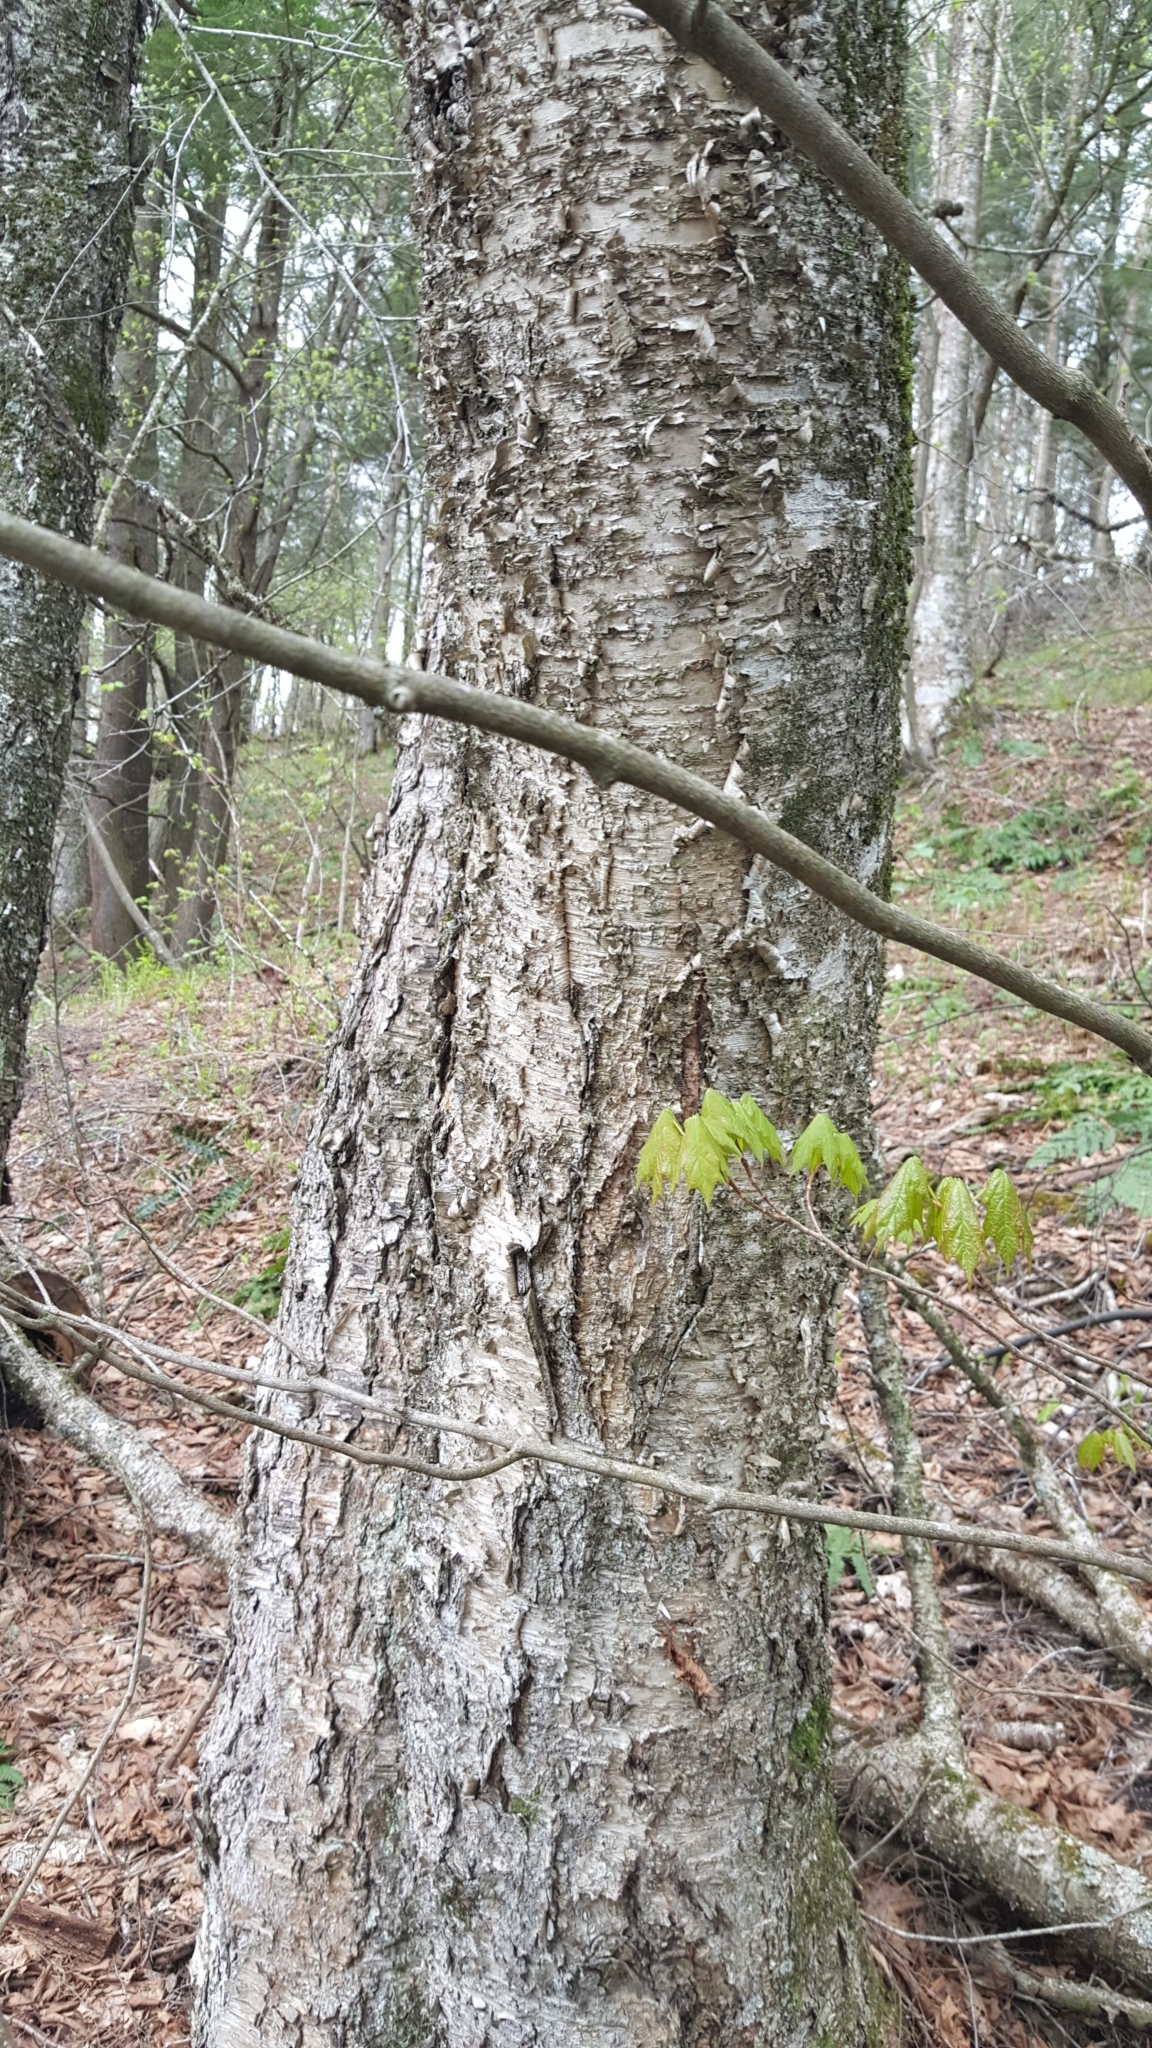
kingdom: Plantae
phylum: Tracheophyta
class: Magnoliopsida
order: Fagales
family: Betulaceae
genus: Betula
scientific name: Betula alleghaniensis
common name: Yellow birch
